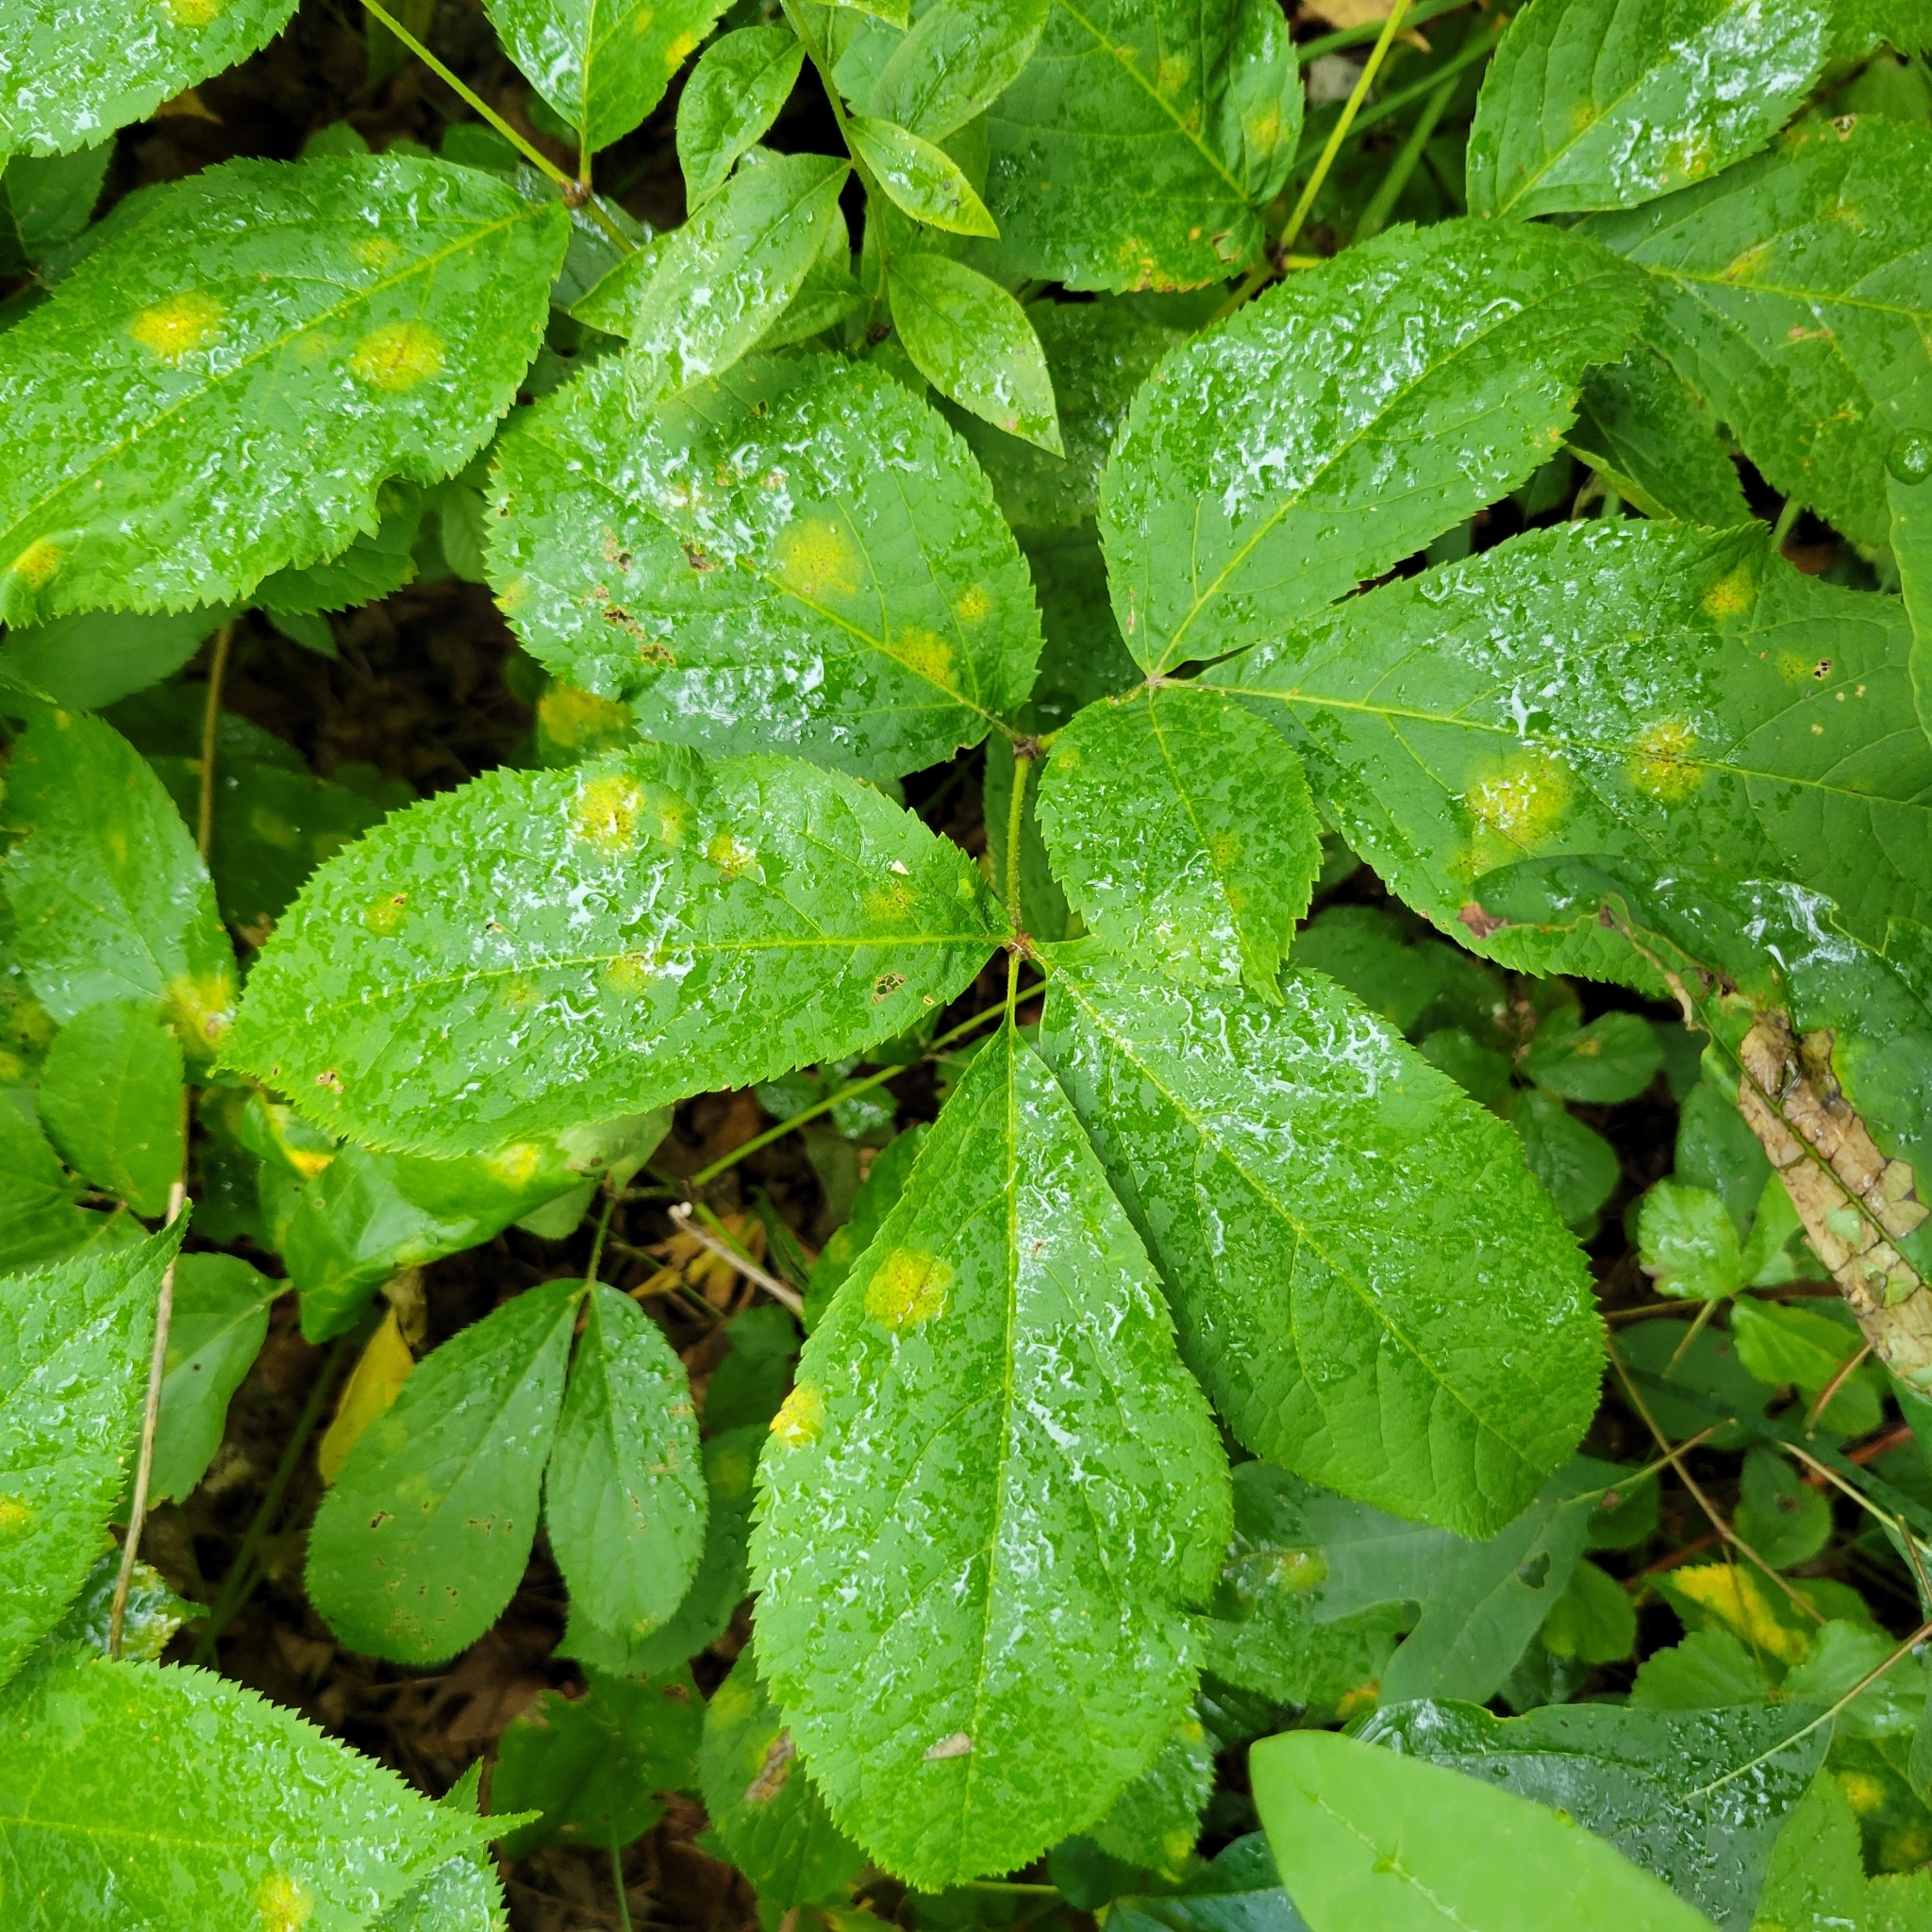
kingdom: Plantae
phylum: Tracheophyta
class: Magnoliopsida
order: Apiales
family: Araliaceae
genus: Aralia
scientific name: Aralia nudicaulis
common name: Wild sarsaparilla
